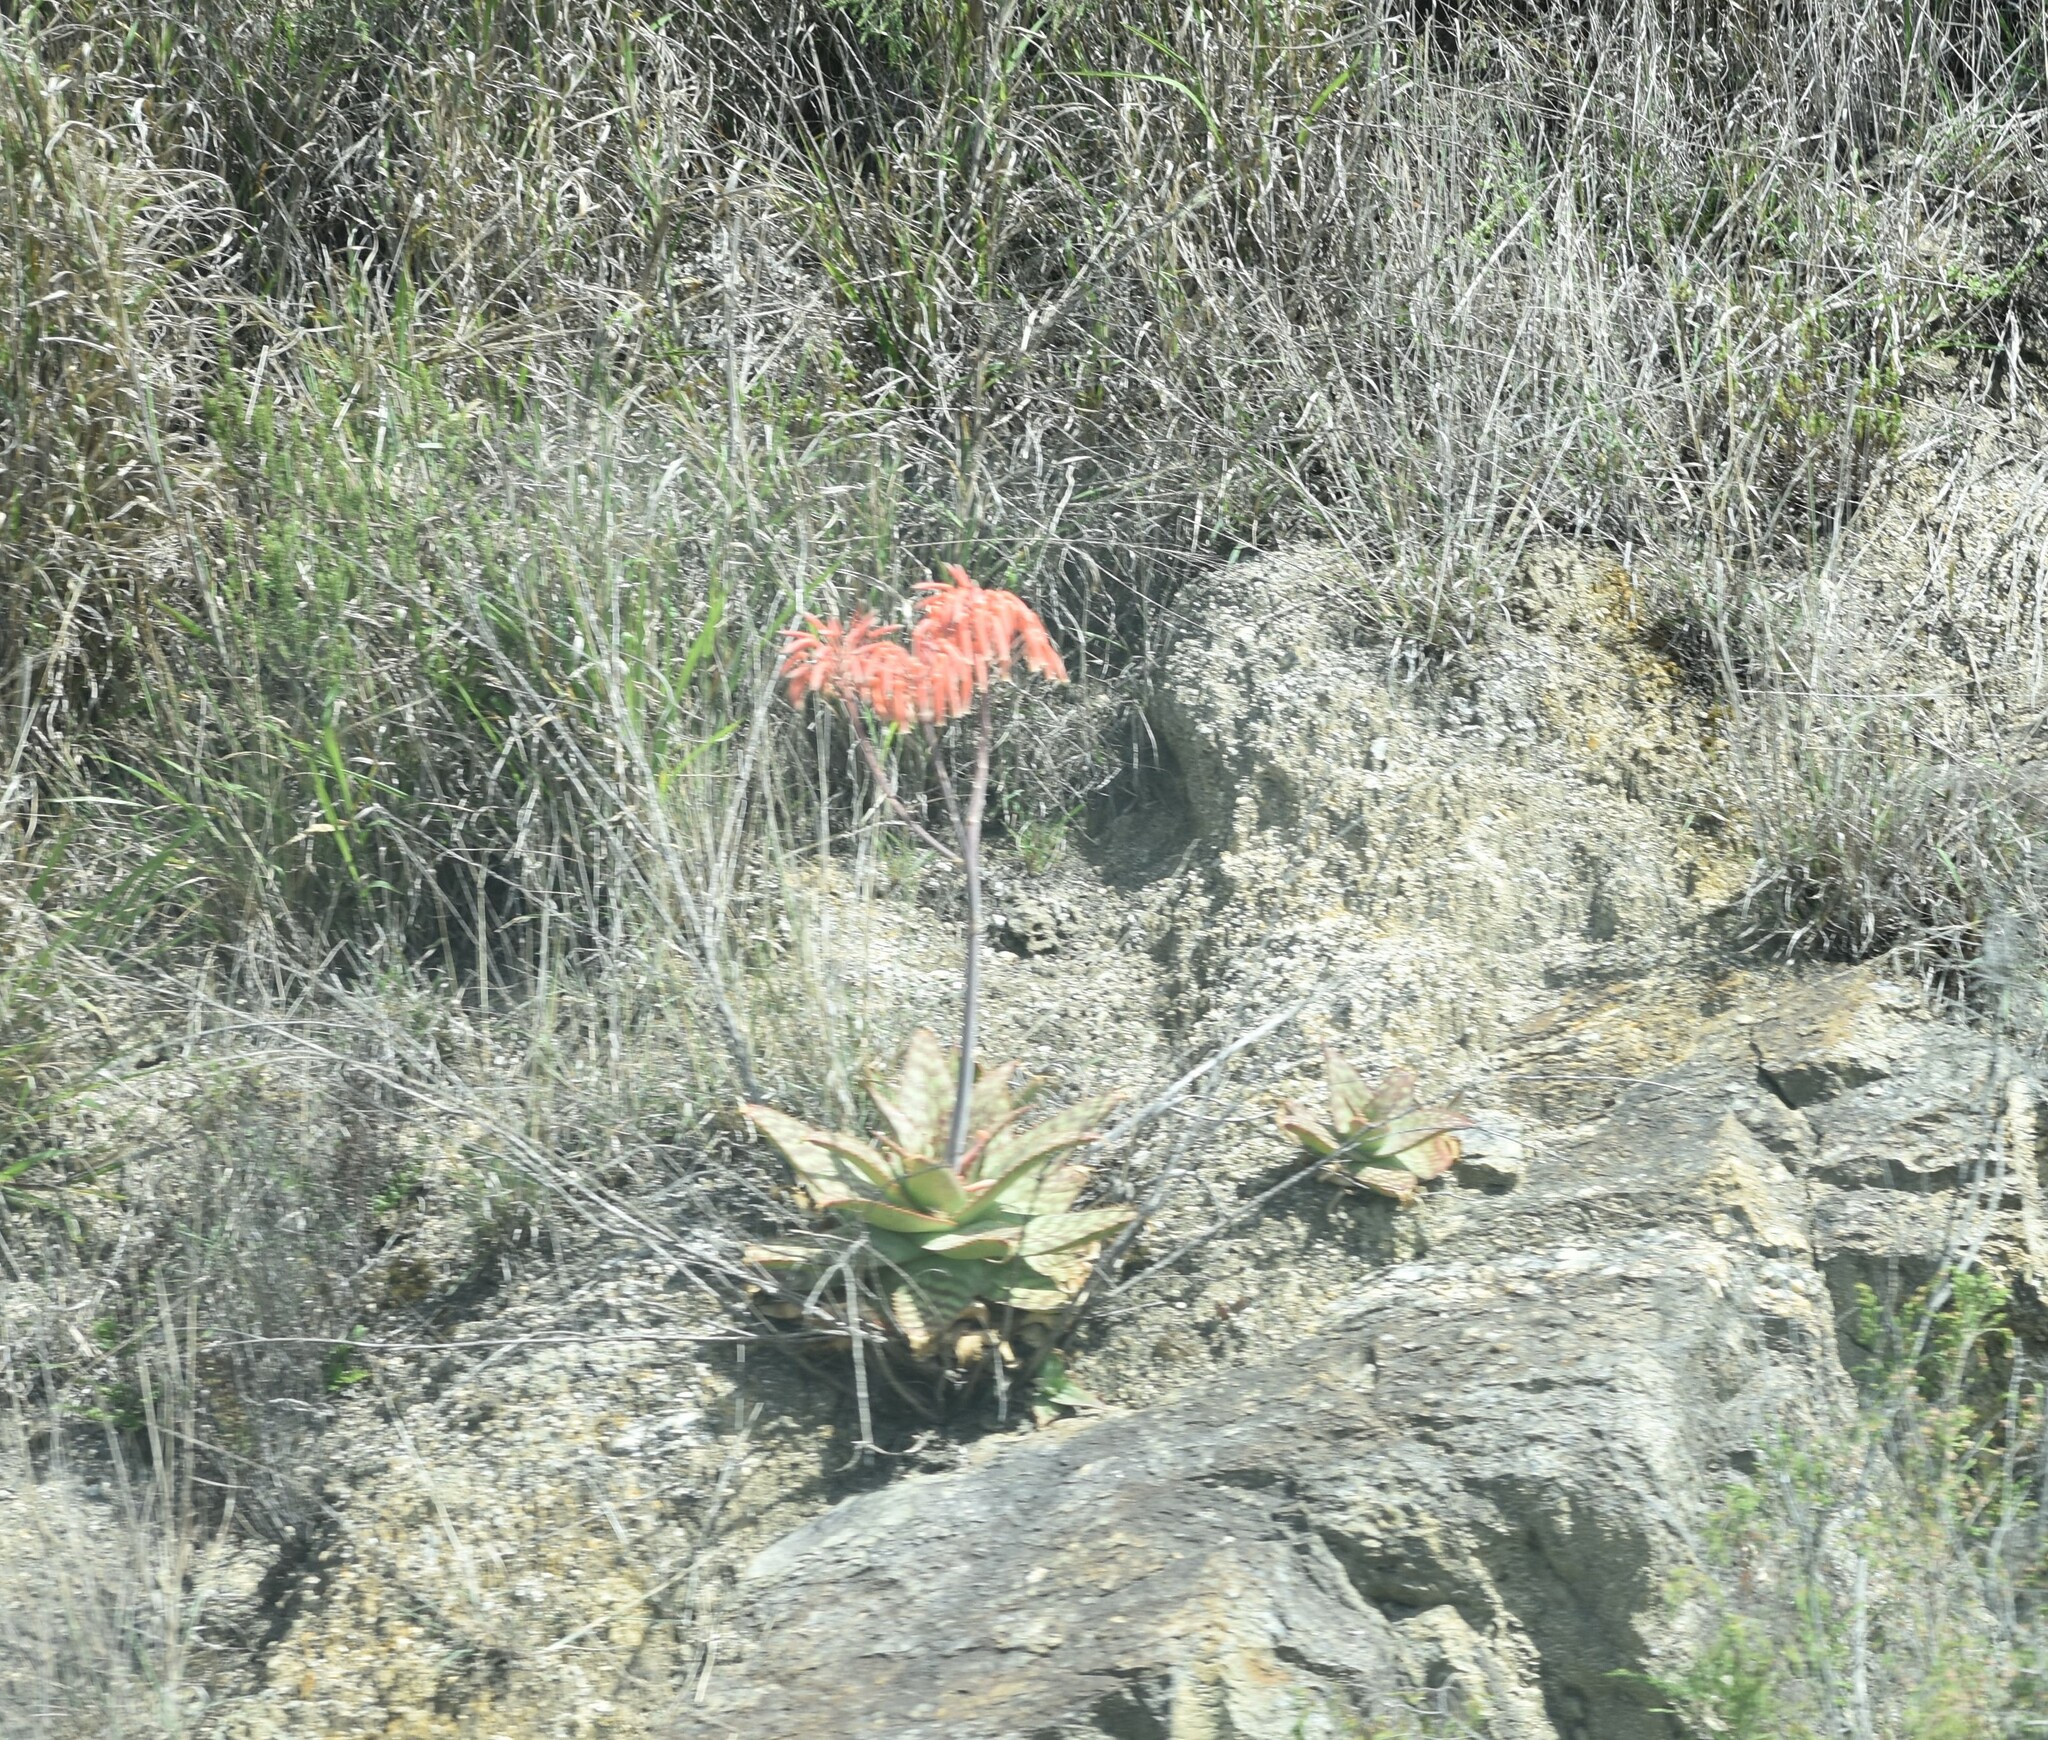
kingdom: Plantae
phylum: Tracheophyta
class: Liliopsida
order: Asparagales
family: Asphodelaceae
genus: Aloe
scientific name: Aloe maculata
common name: Broadleaf aloe
